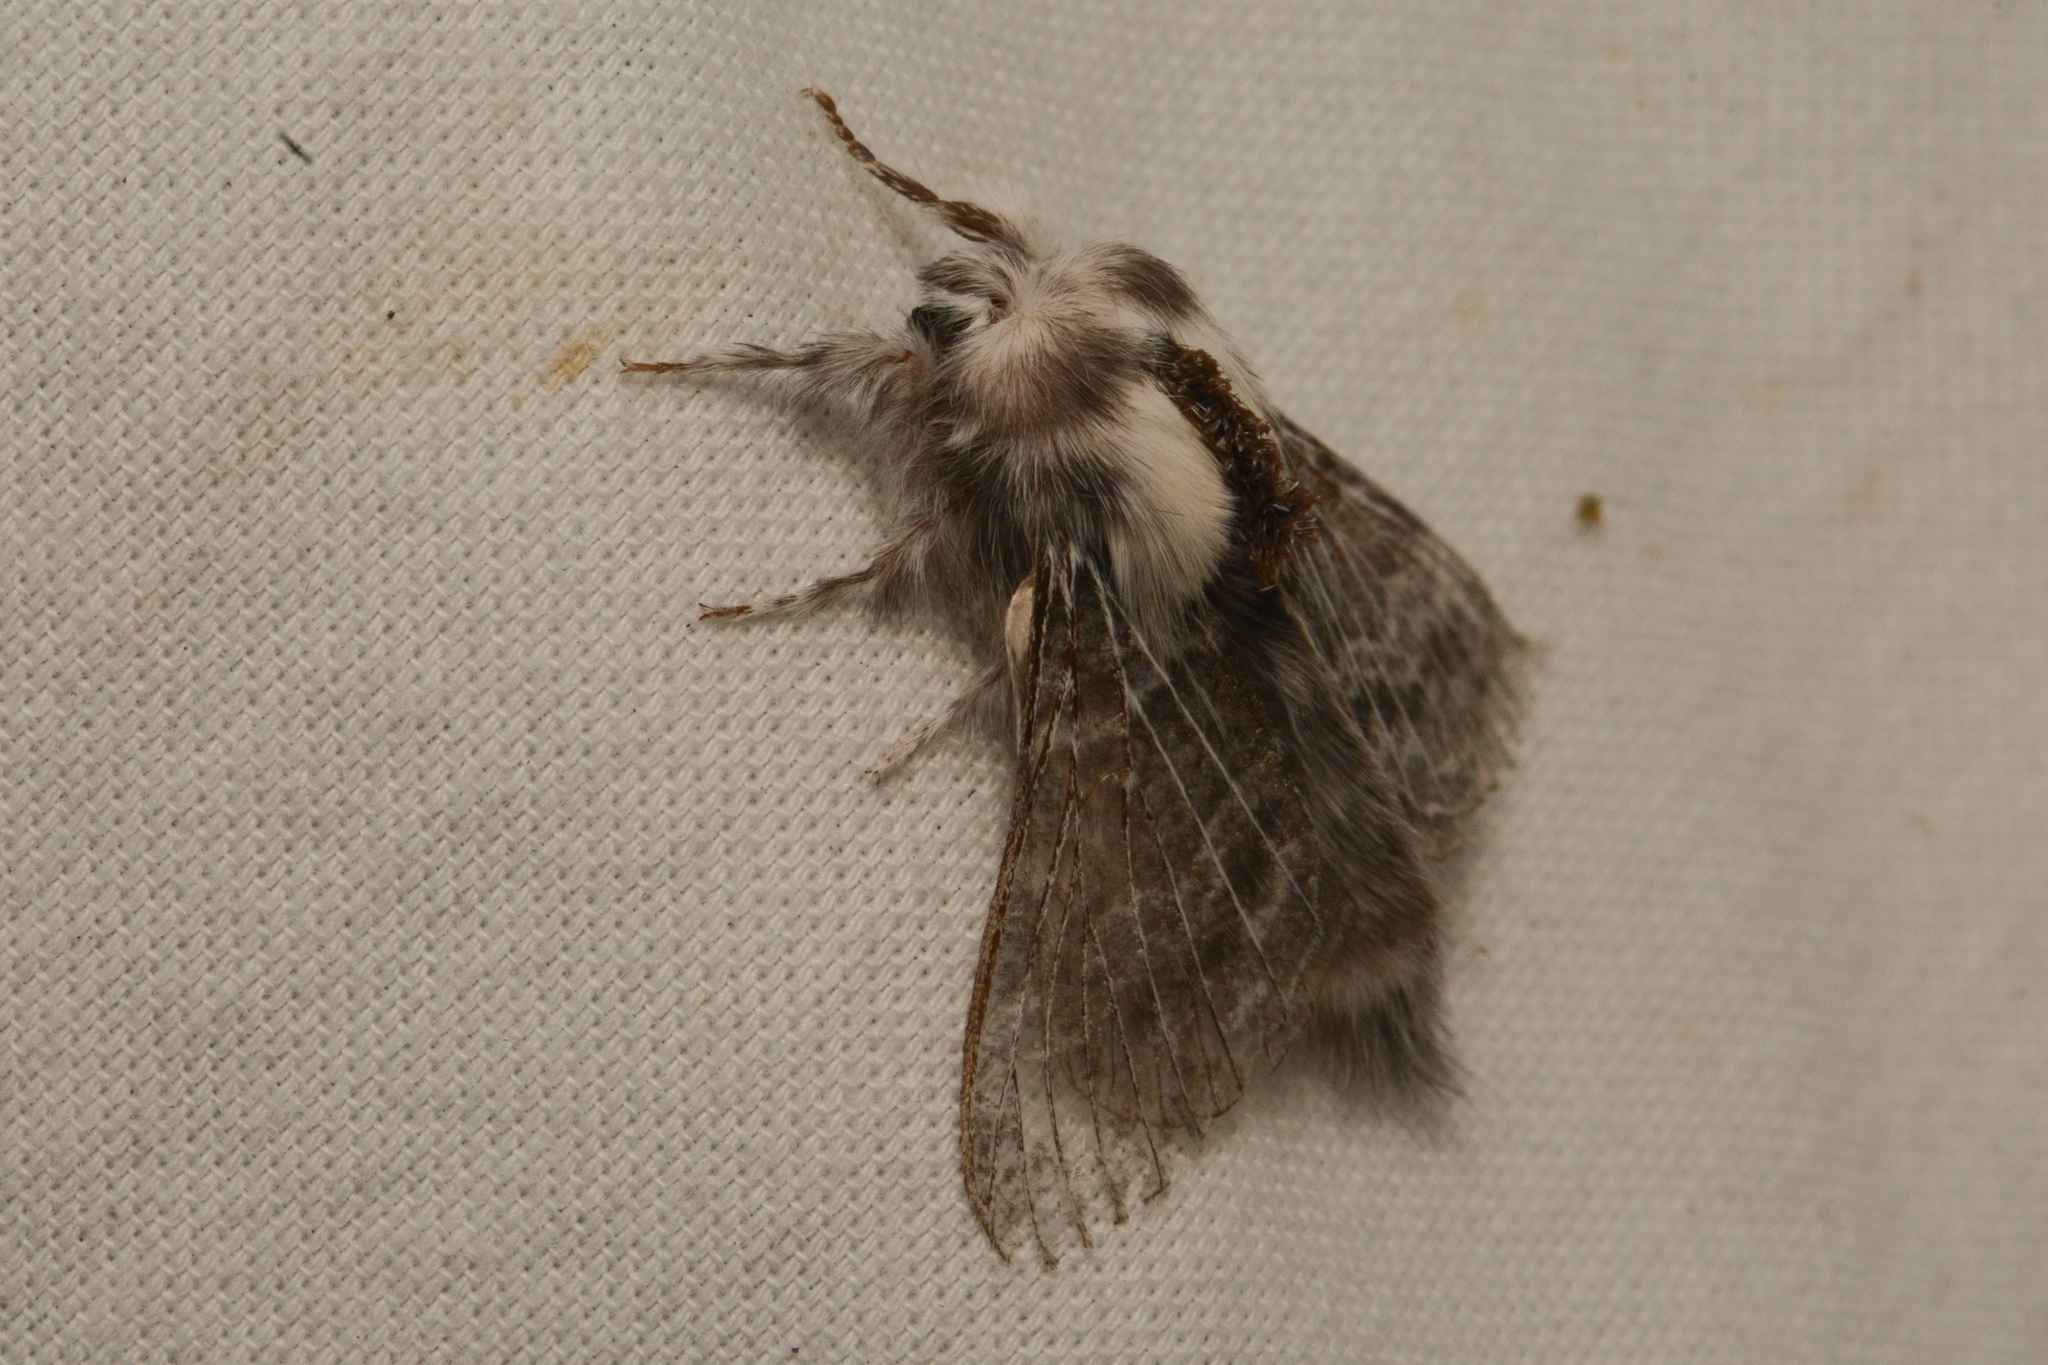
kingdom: Animalia
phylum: Arthropoda
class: Insecta
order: Lepidoptera
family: Lasiocampidae
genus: Tolype
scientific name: Tolype distincta
